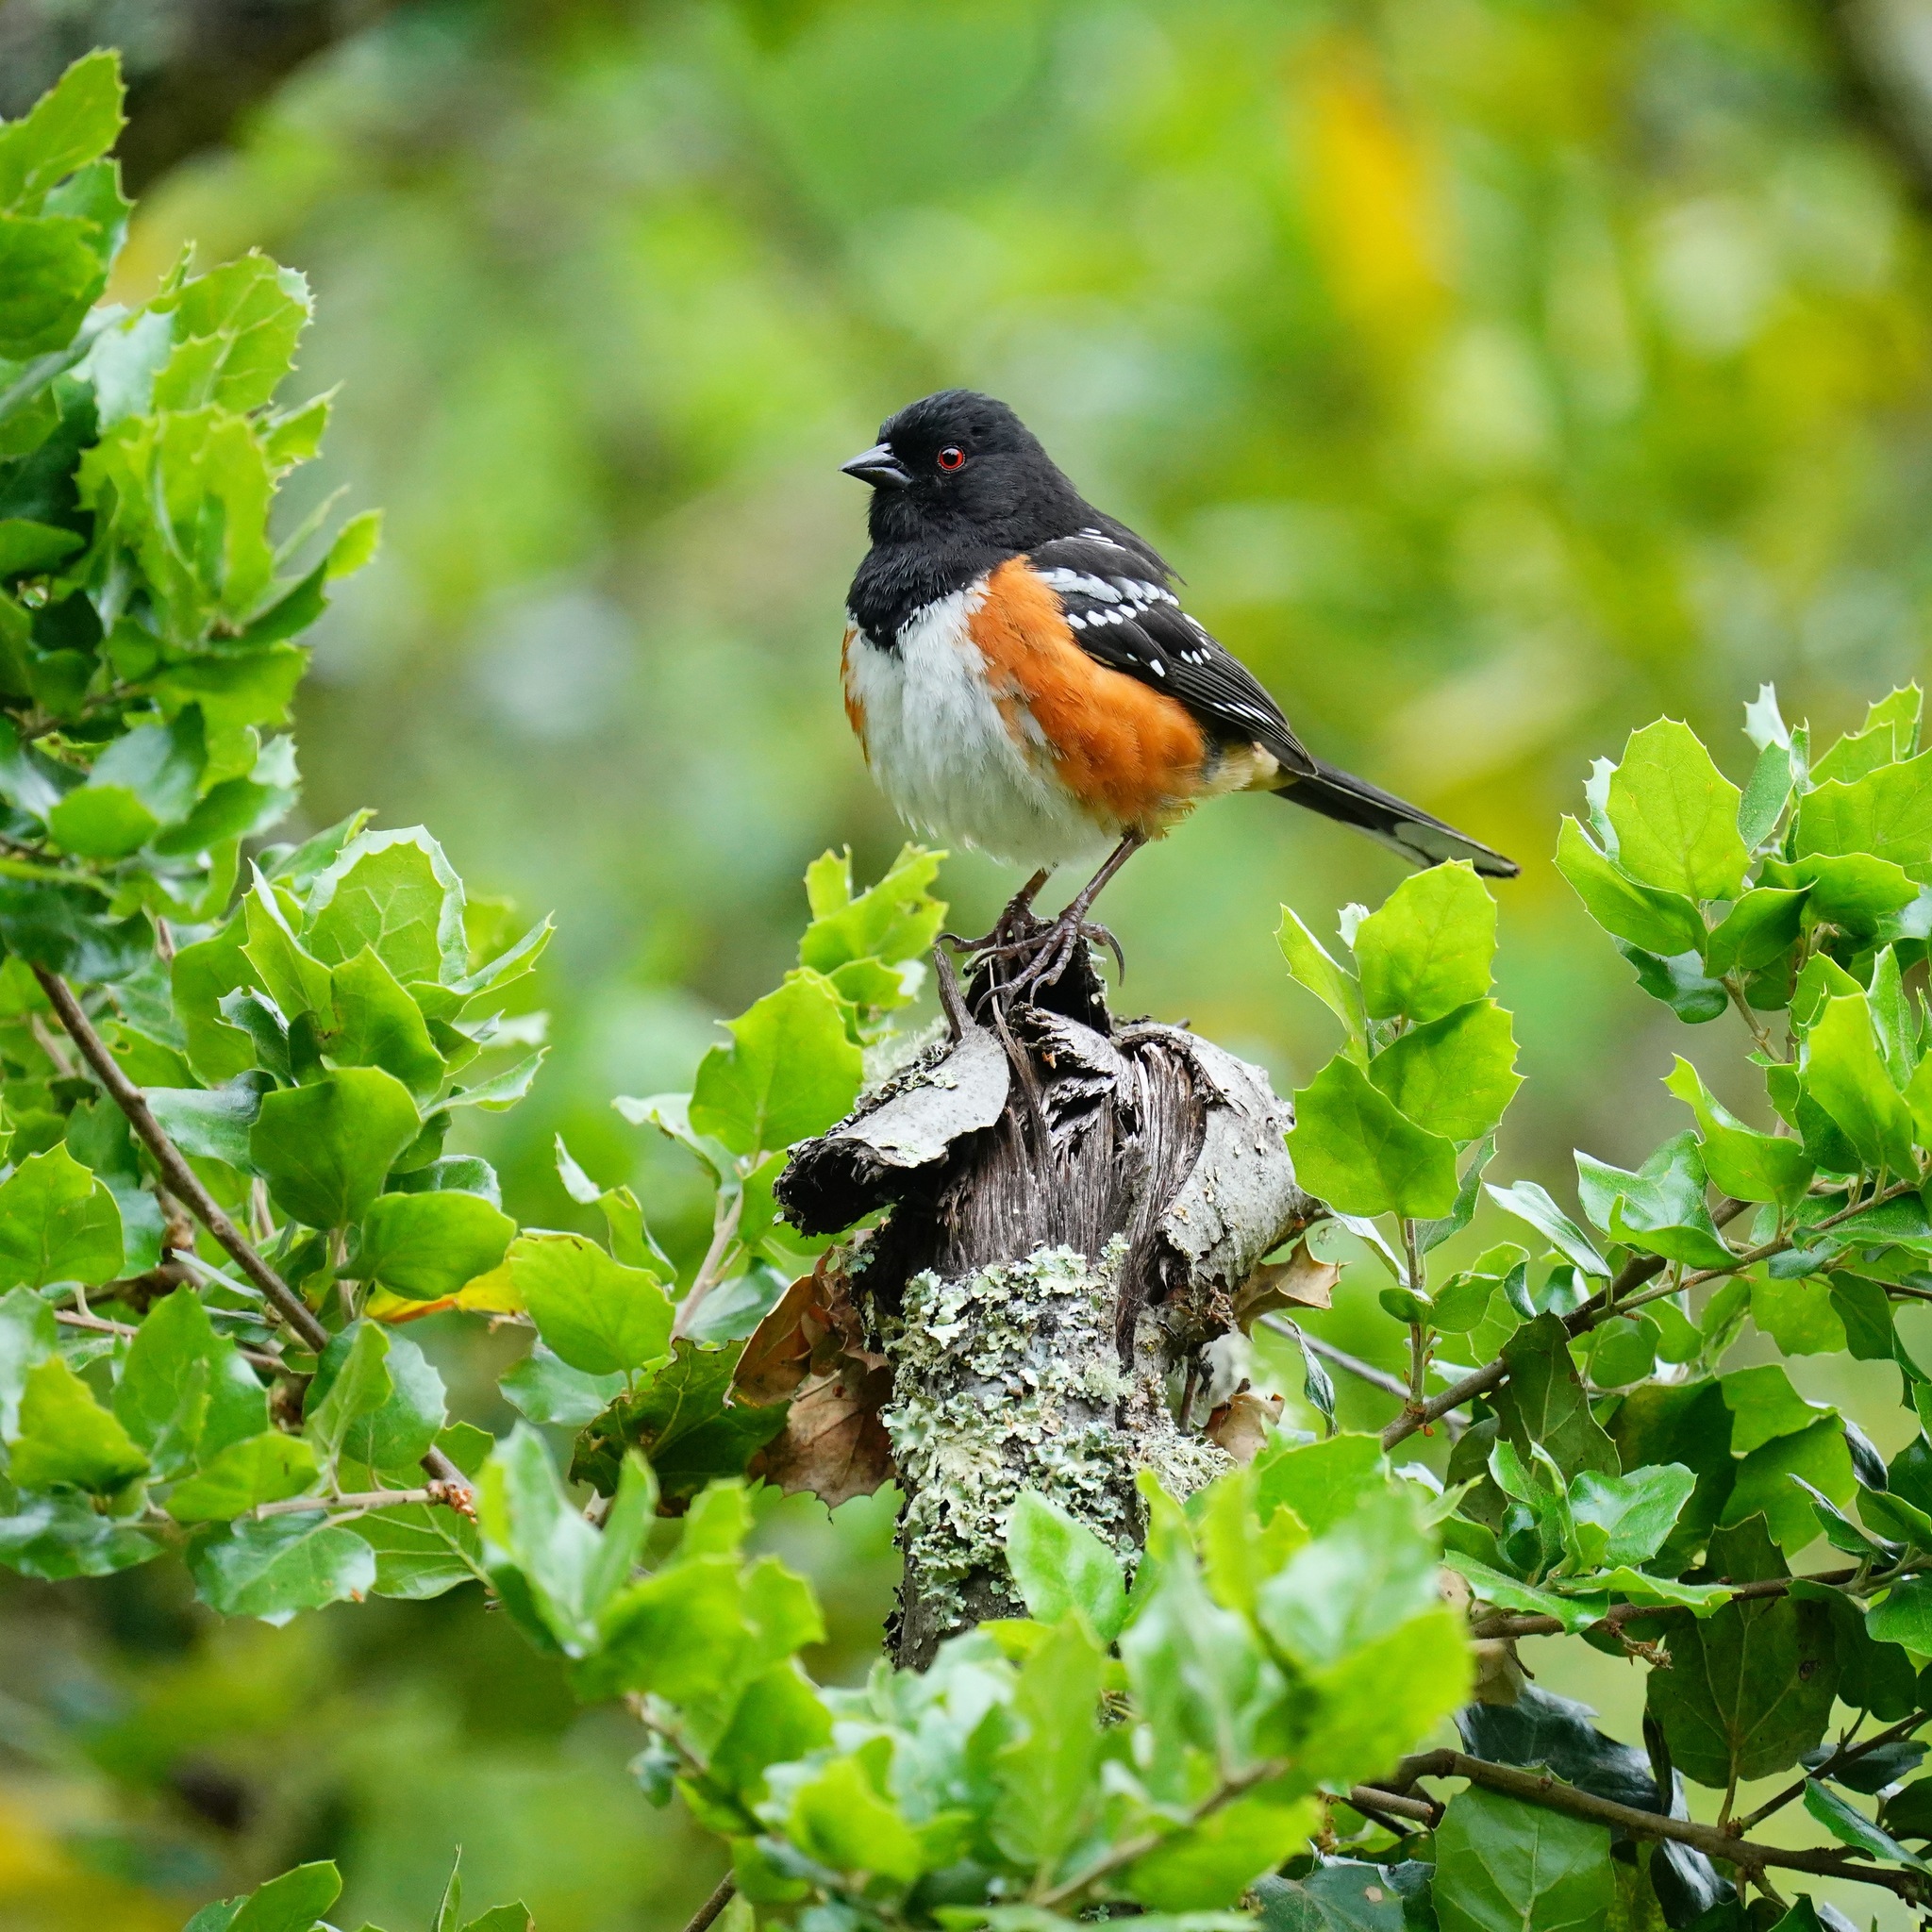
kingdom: Animalia
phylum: Chordata
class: Aves
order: Passeriformes
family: Passerellidae
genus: Pipilo
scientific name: Pipilo maculatus
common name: Spotted towhee
